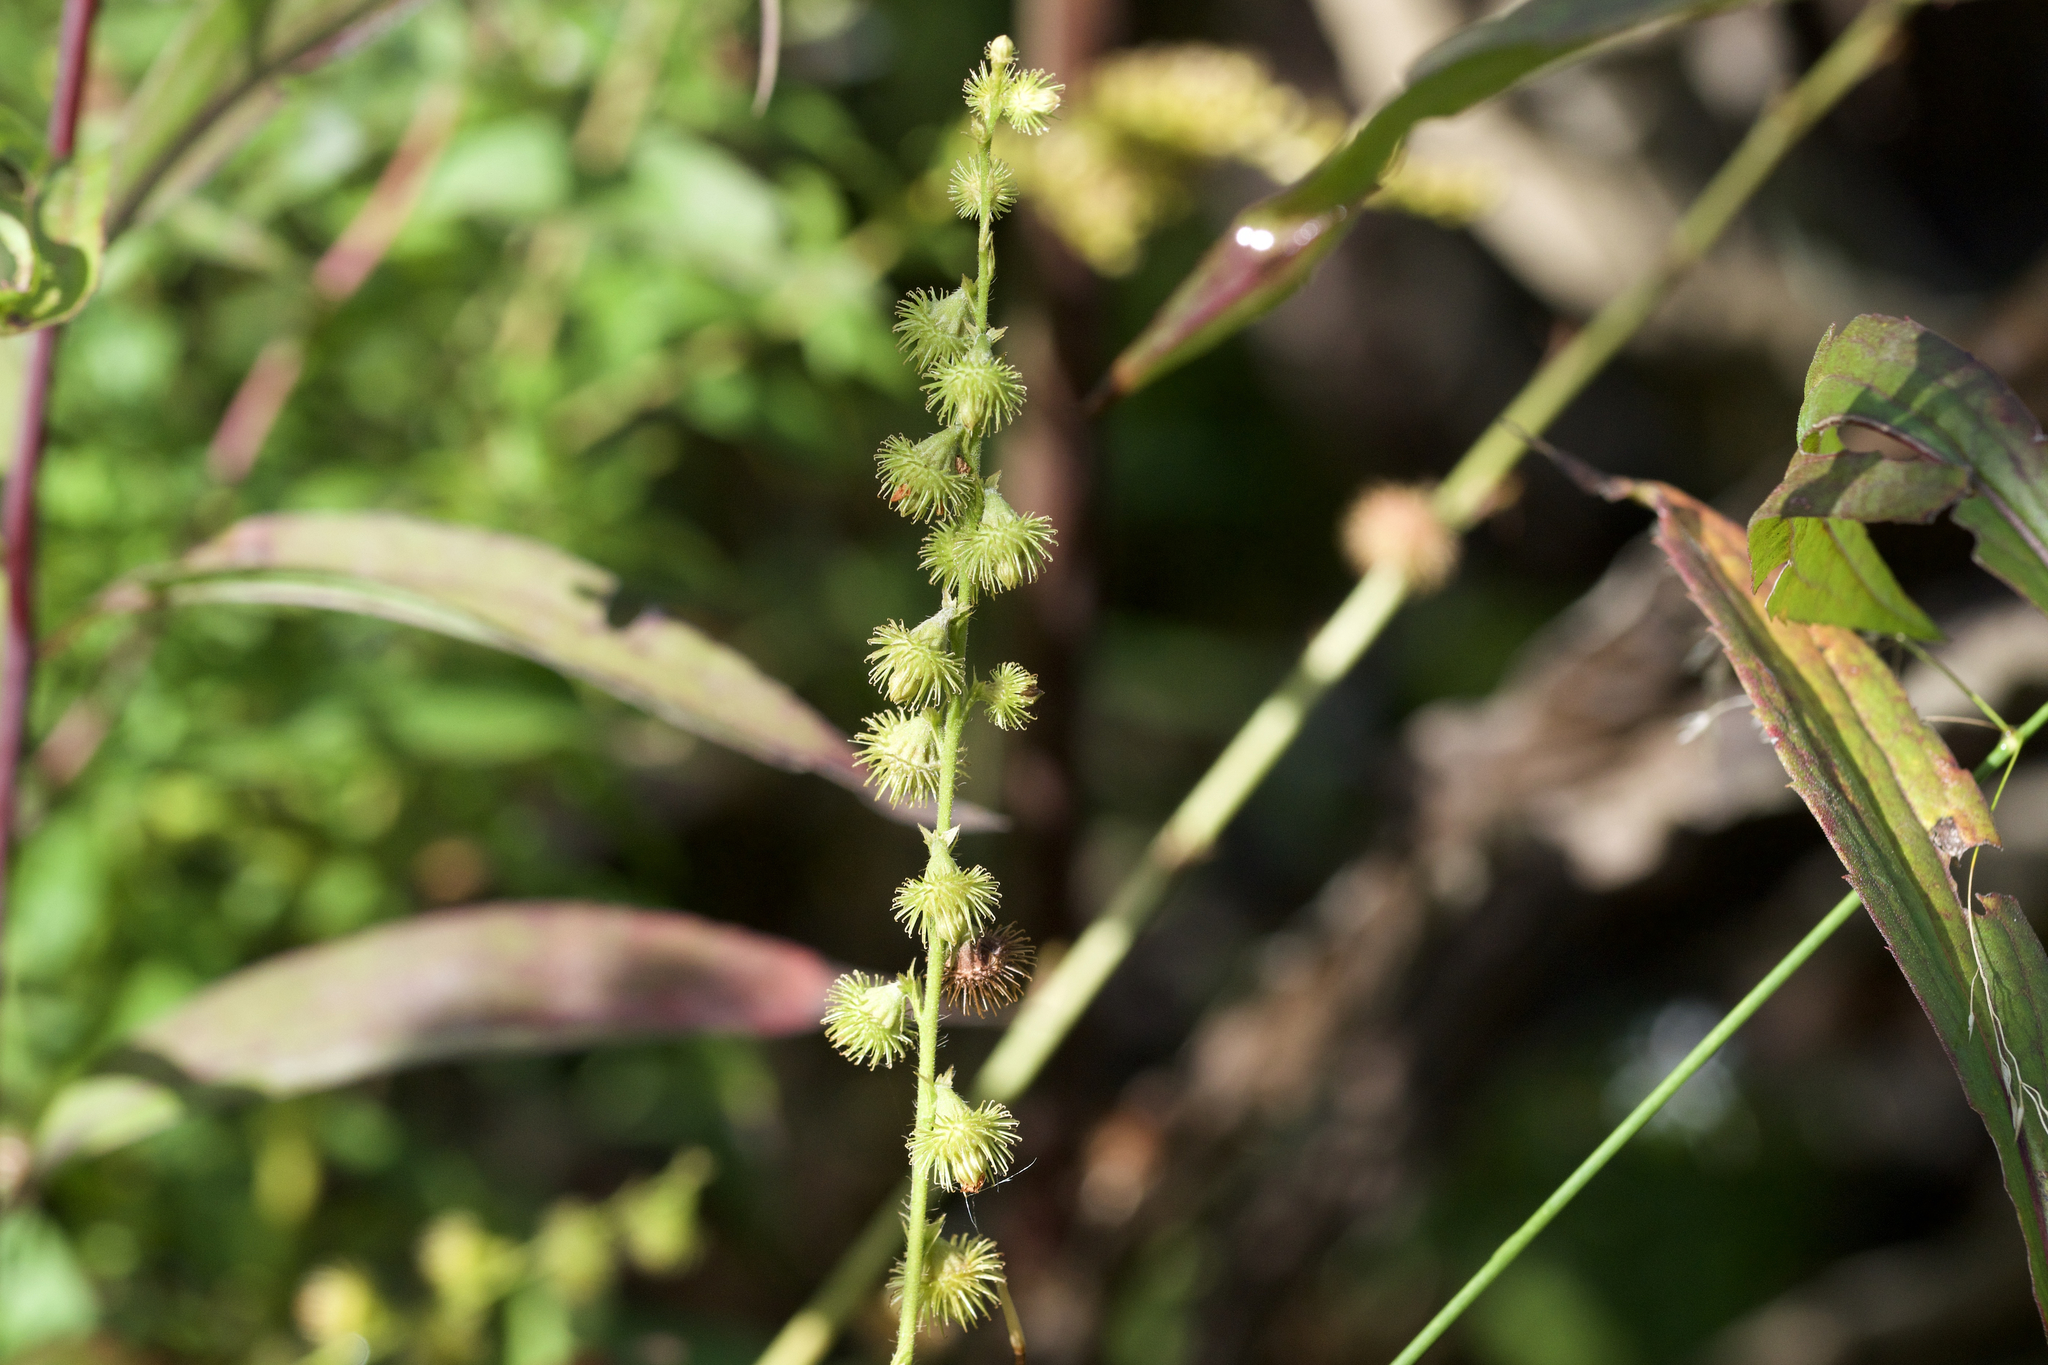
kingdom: Plantae
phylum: Tracheophyta
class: Magnoliopsida
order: Rosales
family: Rosaceae
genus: Agrimonia
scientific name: Agrimonia gryposepala
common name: Common agrimony
